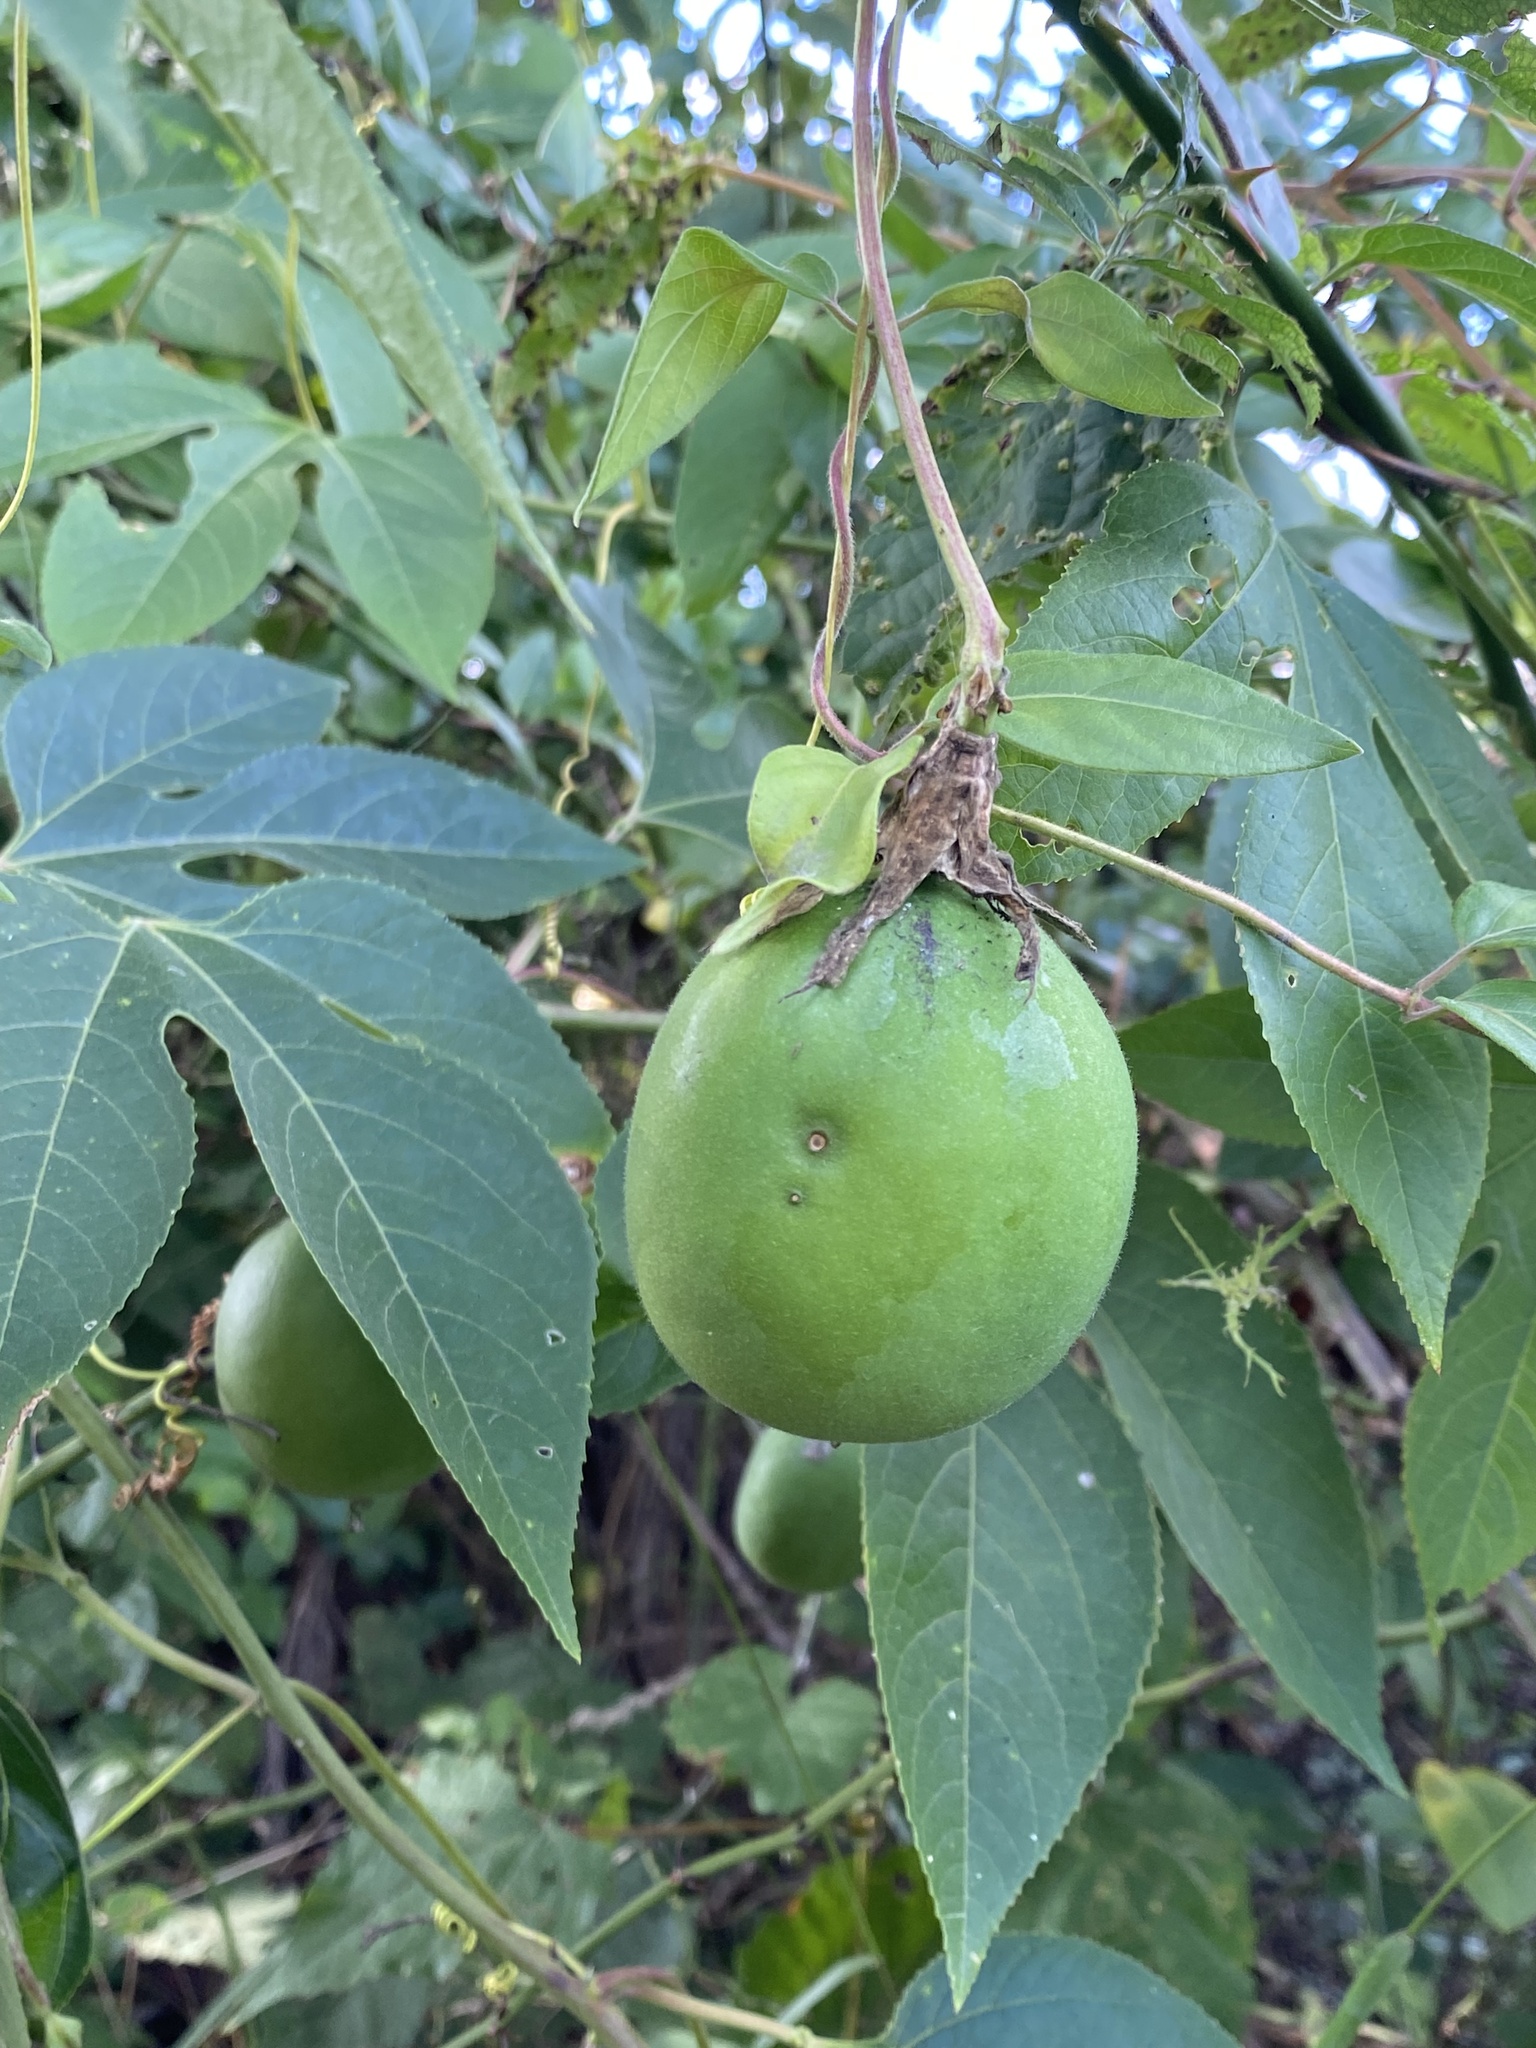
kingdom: Plantae
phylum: Tracheophyta
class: Magnoliopsida
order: Malpighiales
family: Passifloraceae
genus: Passiflora
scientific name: Passiflora incarnata
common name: Apricot-vine
